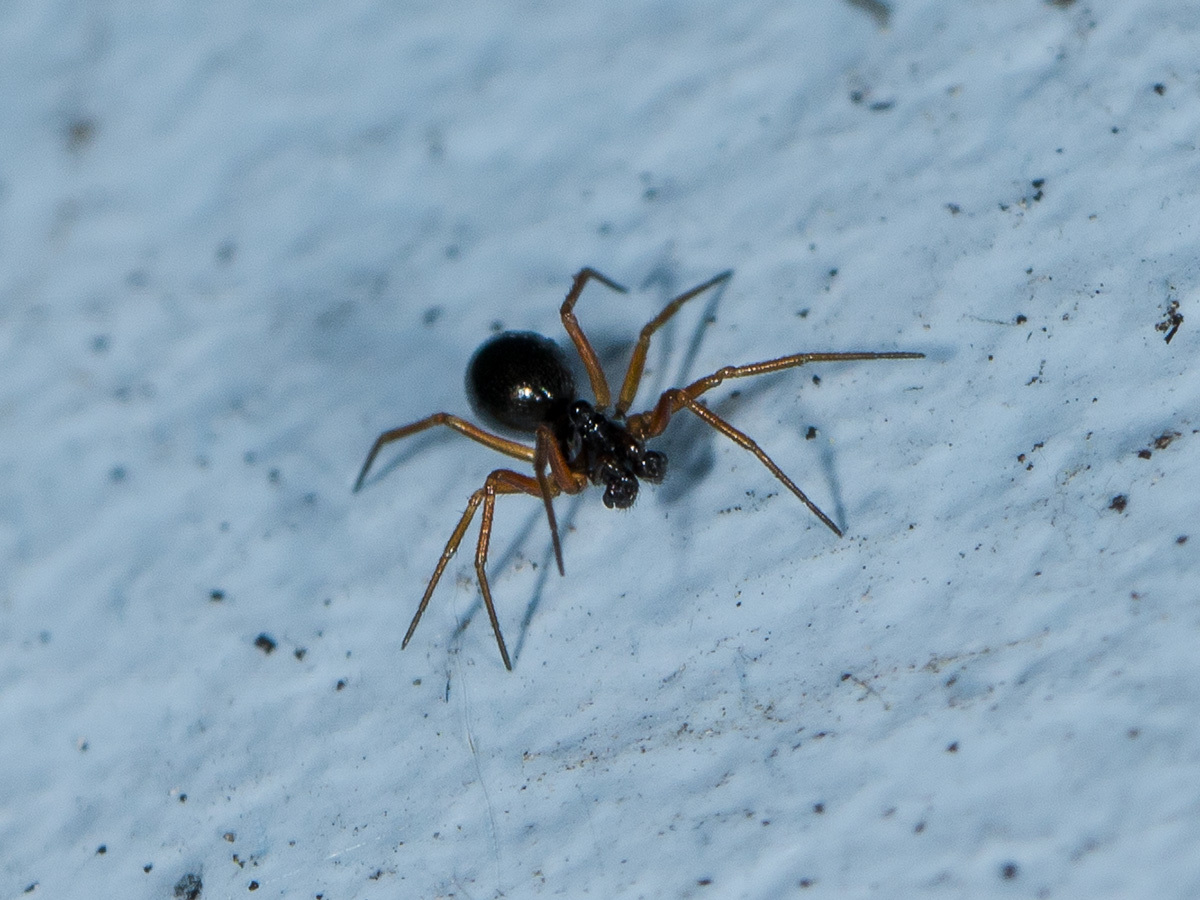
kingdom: Animalia
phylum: Arthropoda
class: Arachnida
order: Araneae
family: Linyphiidae
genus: Entelecara
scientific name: Entelecara acuminata
